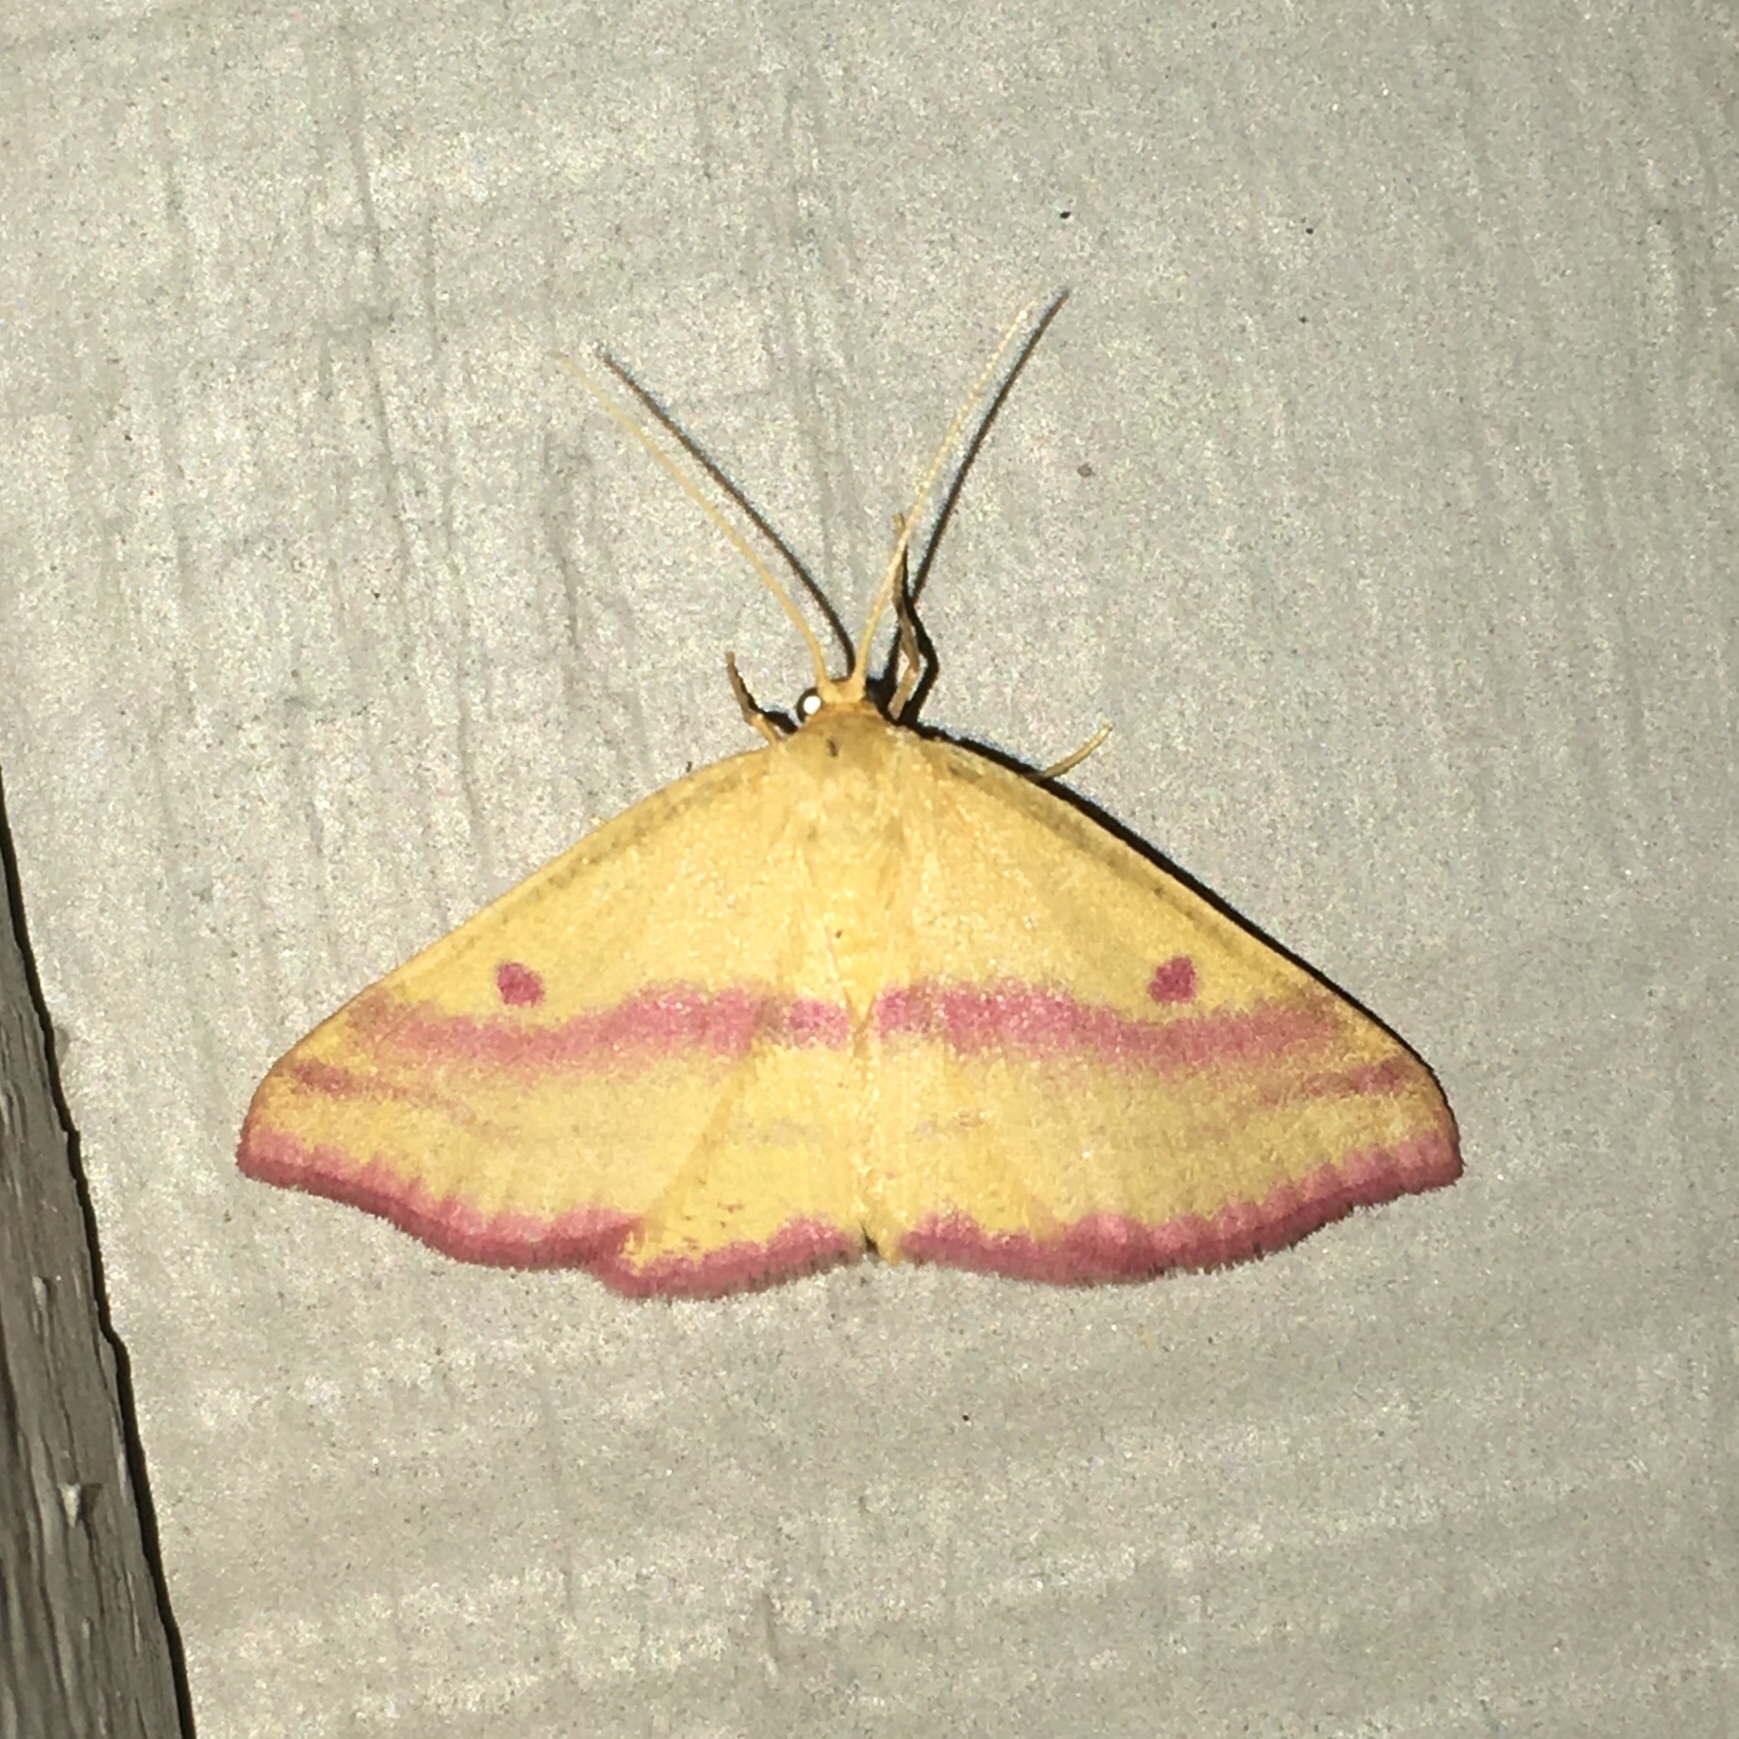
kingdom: Animalia
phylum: Arthropoda
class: Insecta
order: Lepidoptera
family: Geometridae
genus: Haematopis
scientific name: Haematopis grataria
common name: Chickweed geometer
